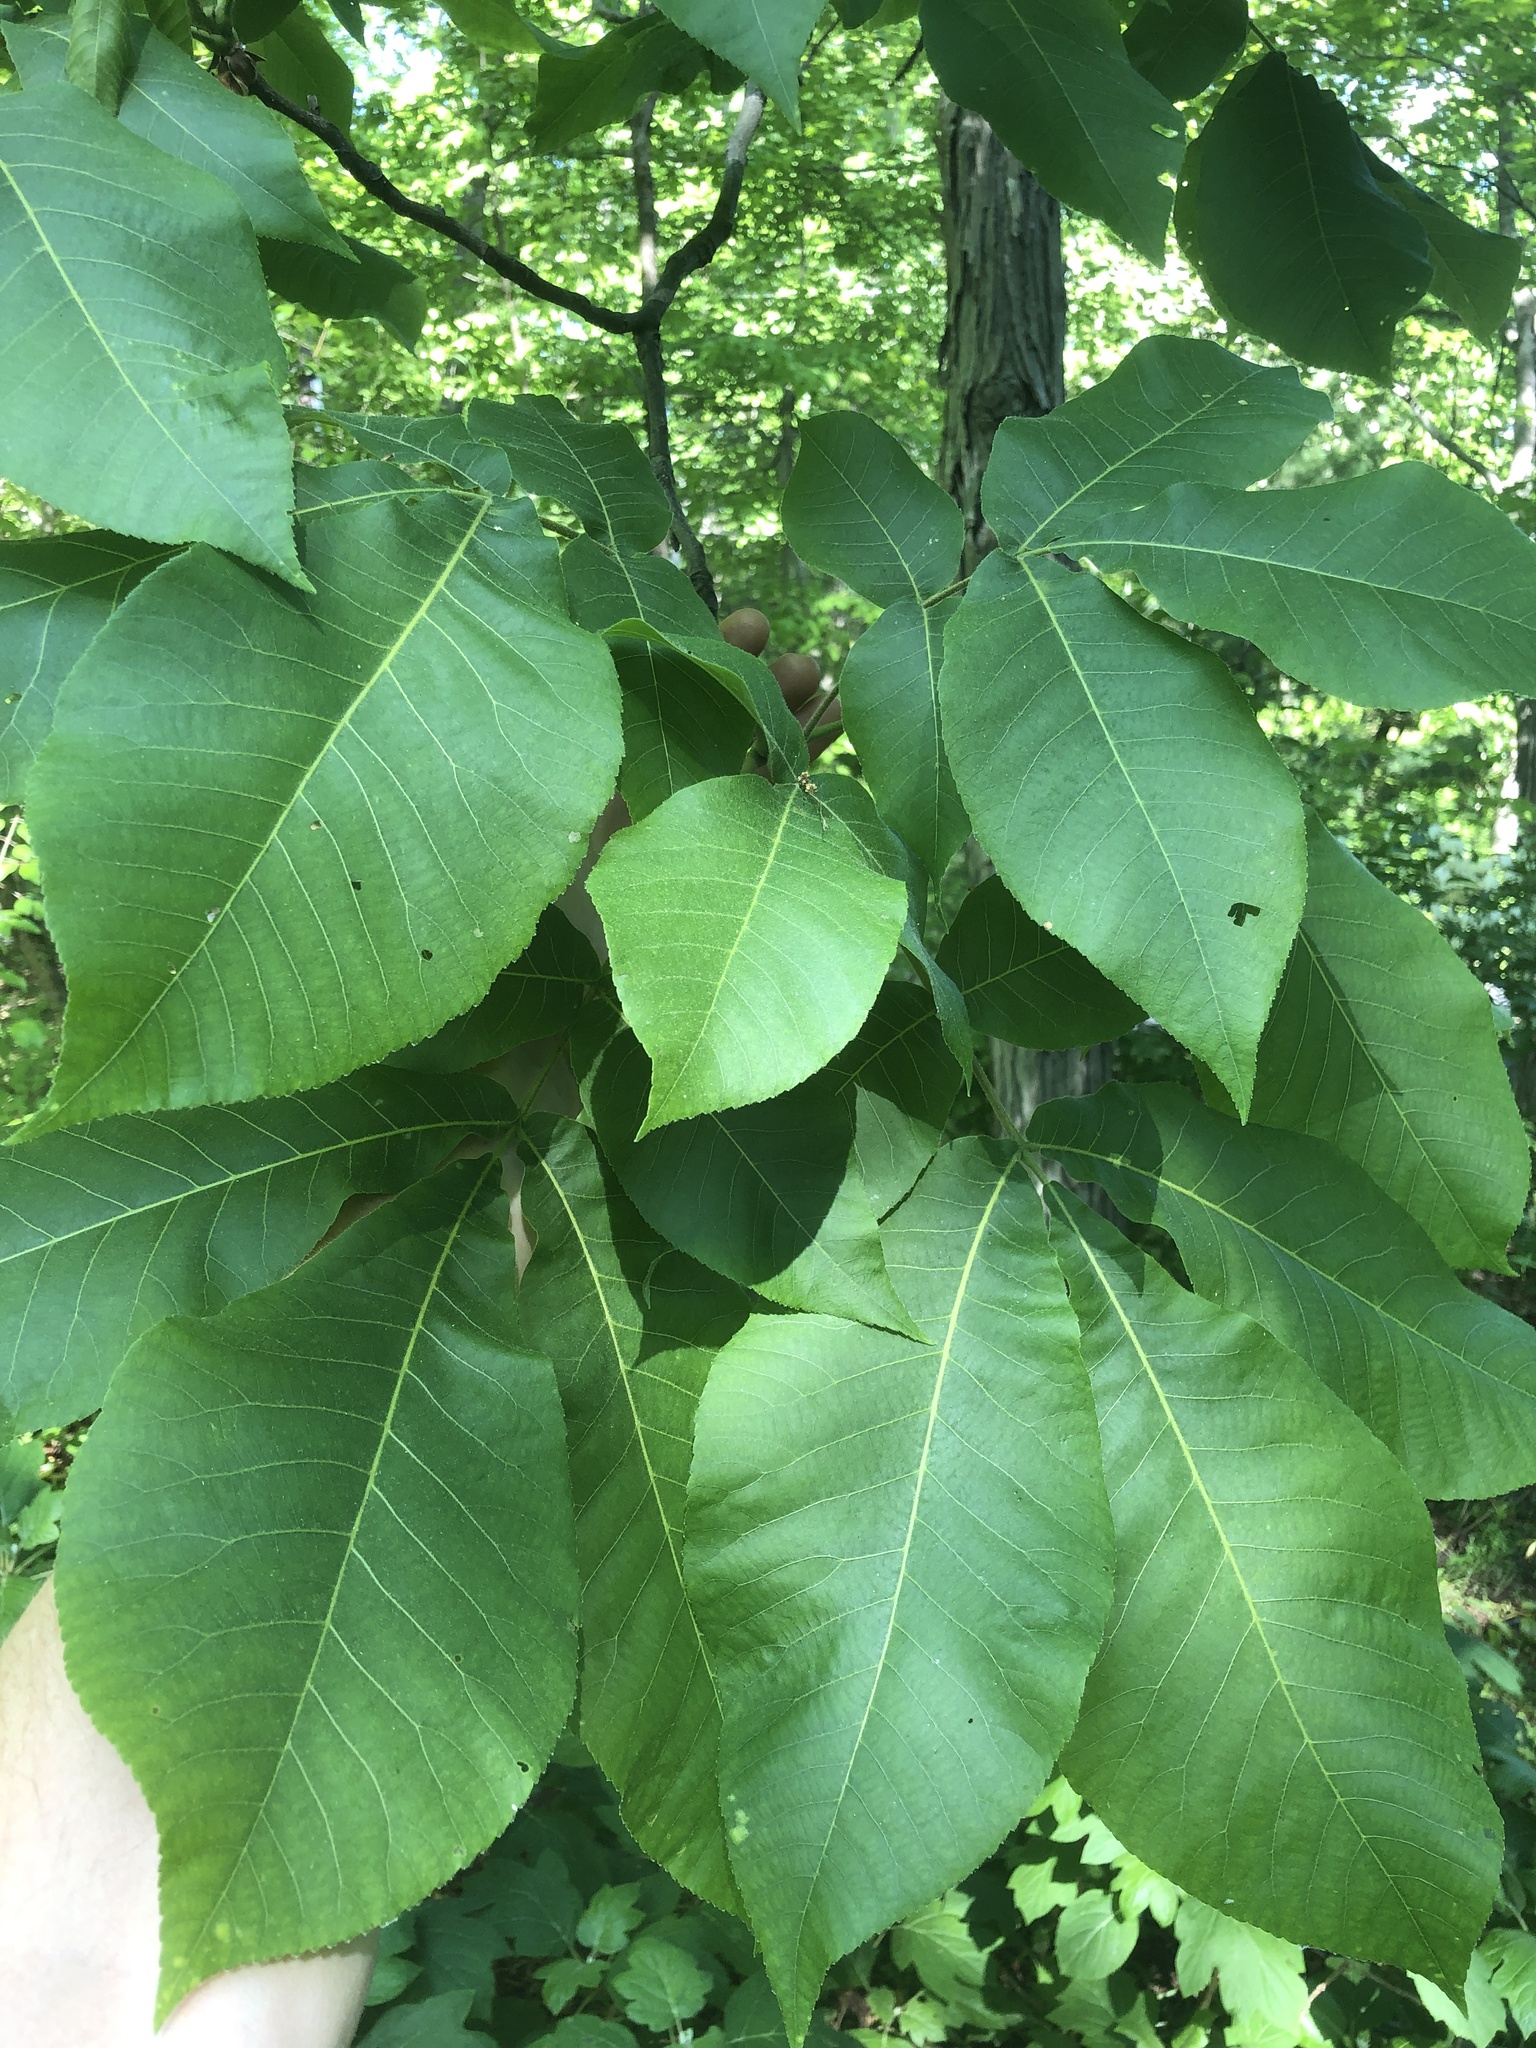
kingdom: Plantae
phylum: Tracheophyta
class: Magnoliopsida
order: Fagales
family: Juglandaceae
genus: Carya
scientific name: Carya ovata
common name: Shagbark hickory
